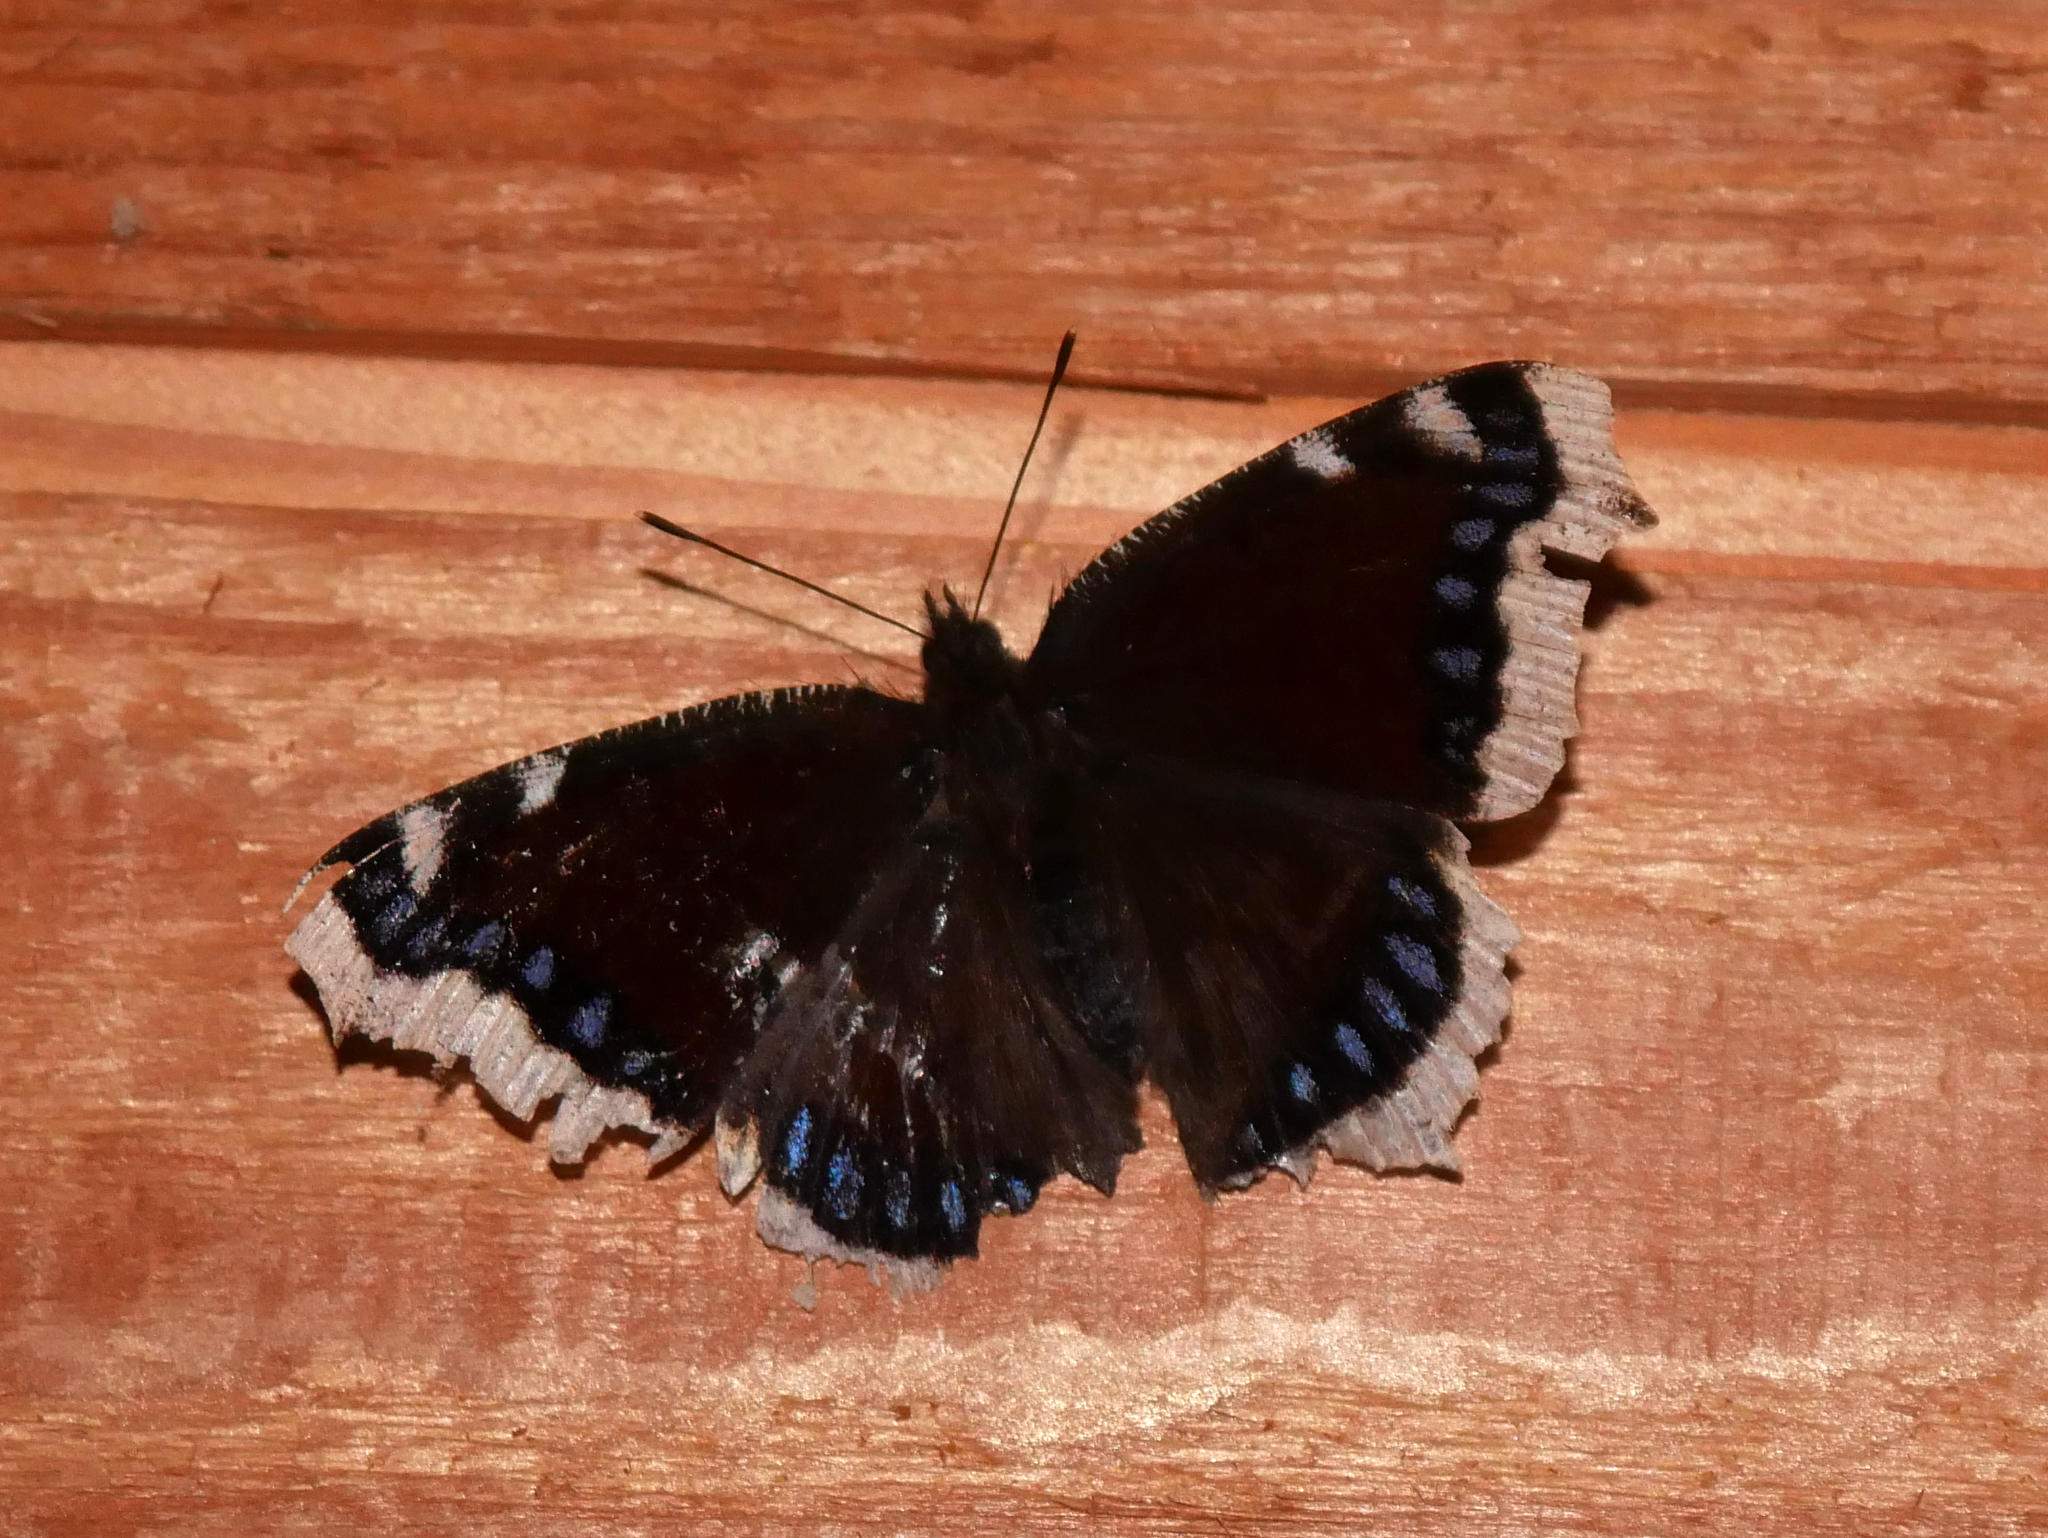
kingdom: Animalia
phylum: Arthropoda
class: Insecta
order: Lepidoptera
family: Nymphalidae
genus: Nymphalis
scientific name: Nymphalis antiopa
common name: Camberwell beauty
